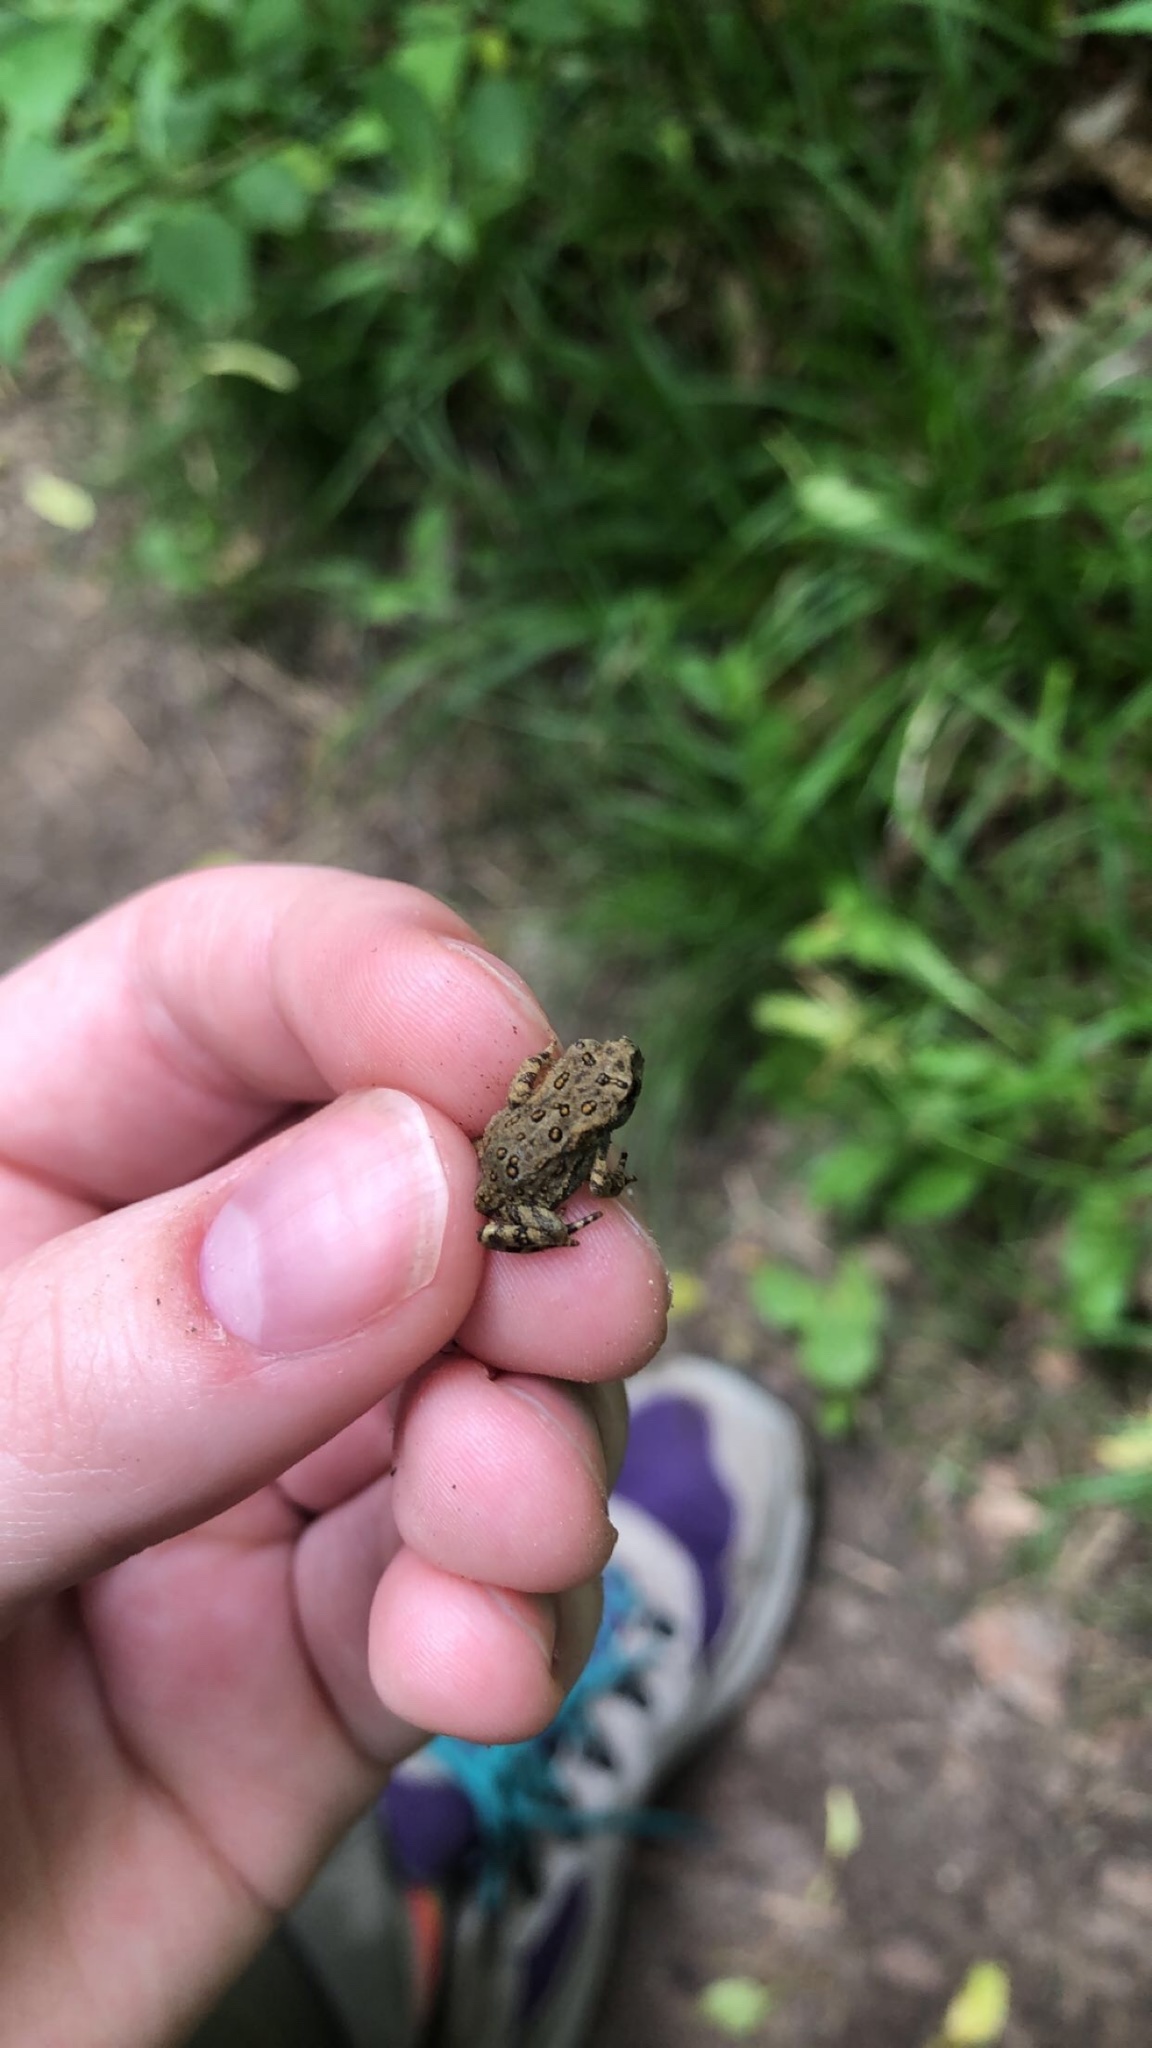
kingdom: Animalia
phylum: Chordata
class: Amphibia
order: Anura
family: Bufonidae
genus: Anaxyrus
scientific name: Anaxyrus americanus
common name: American toad
